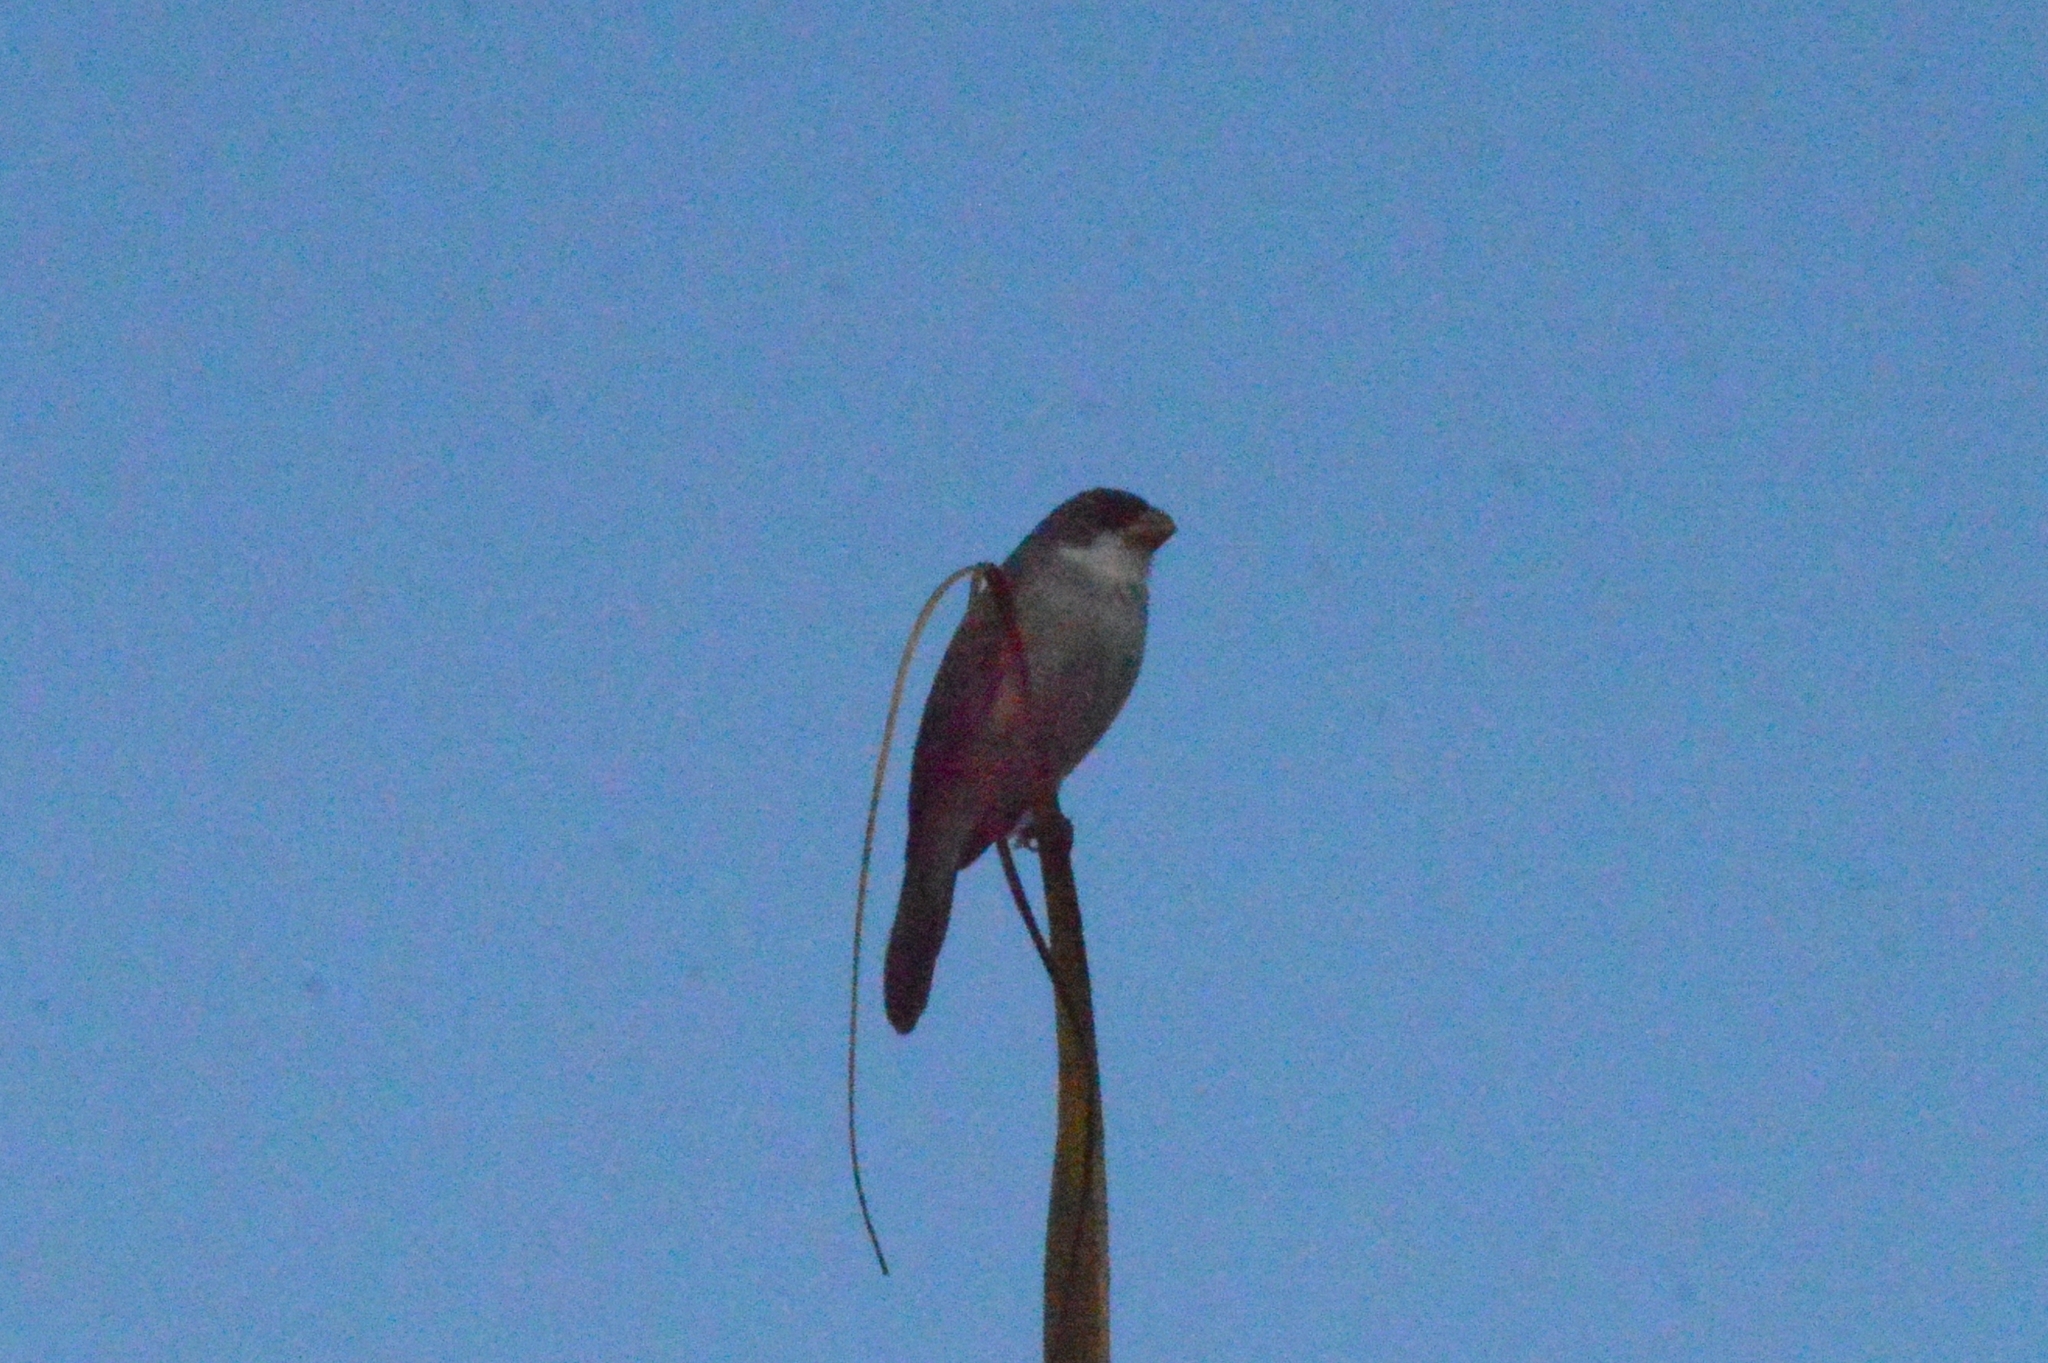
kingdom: Animalia
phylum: Chordata
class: Aves
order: Passeriformes
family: Thraupidae
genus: Sporophila
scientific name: Sporophila leucoptera
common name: White-bellied seedeater
